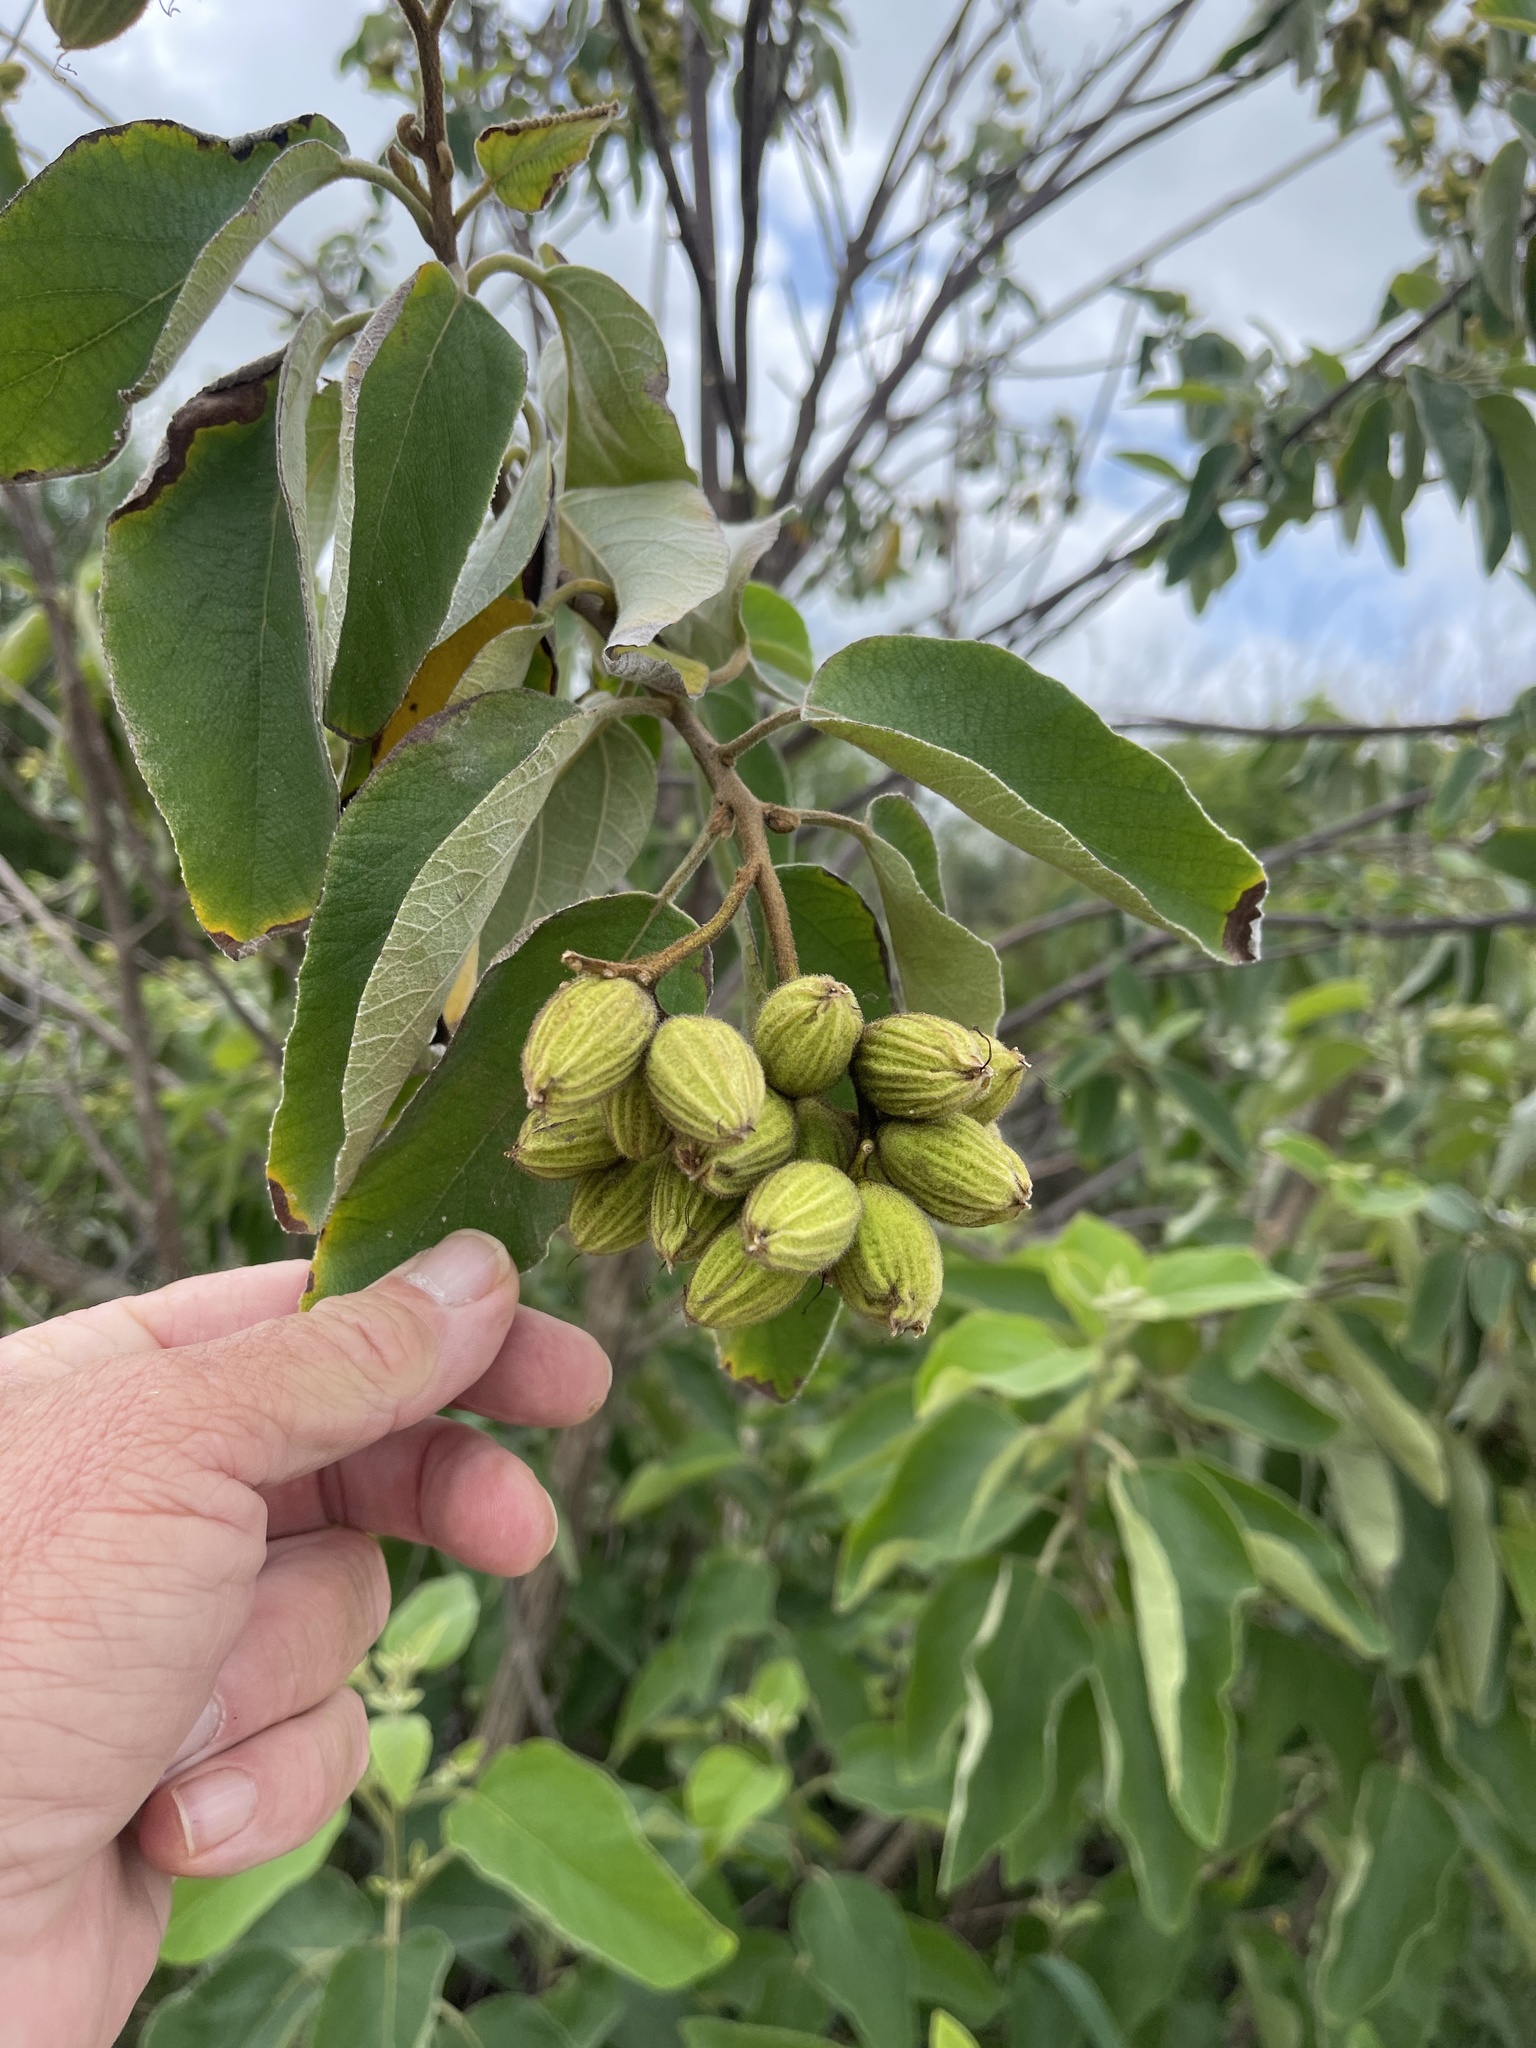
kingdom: Plantae
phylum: Tracheophyta
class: Magnoliopsida
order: Boraginales
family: Cordiaceae
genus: Cordia
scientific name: Cordia boissieri
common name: Mexican-olive
